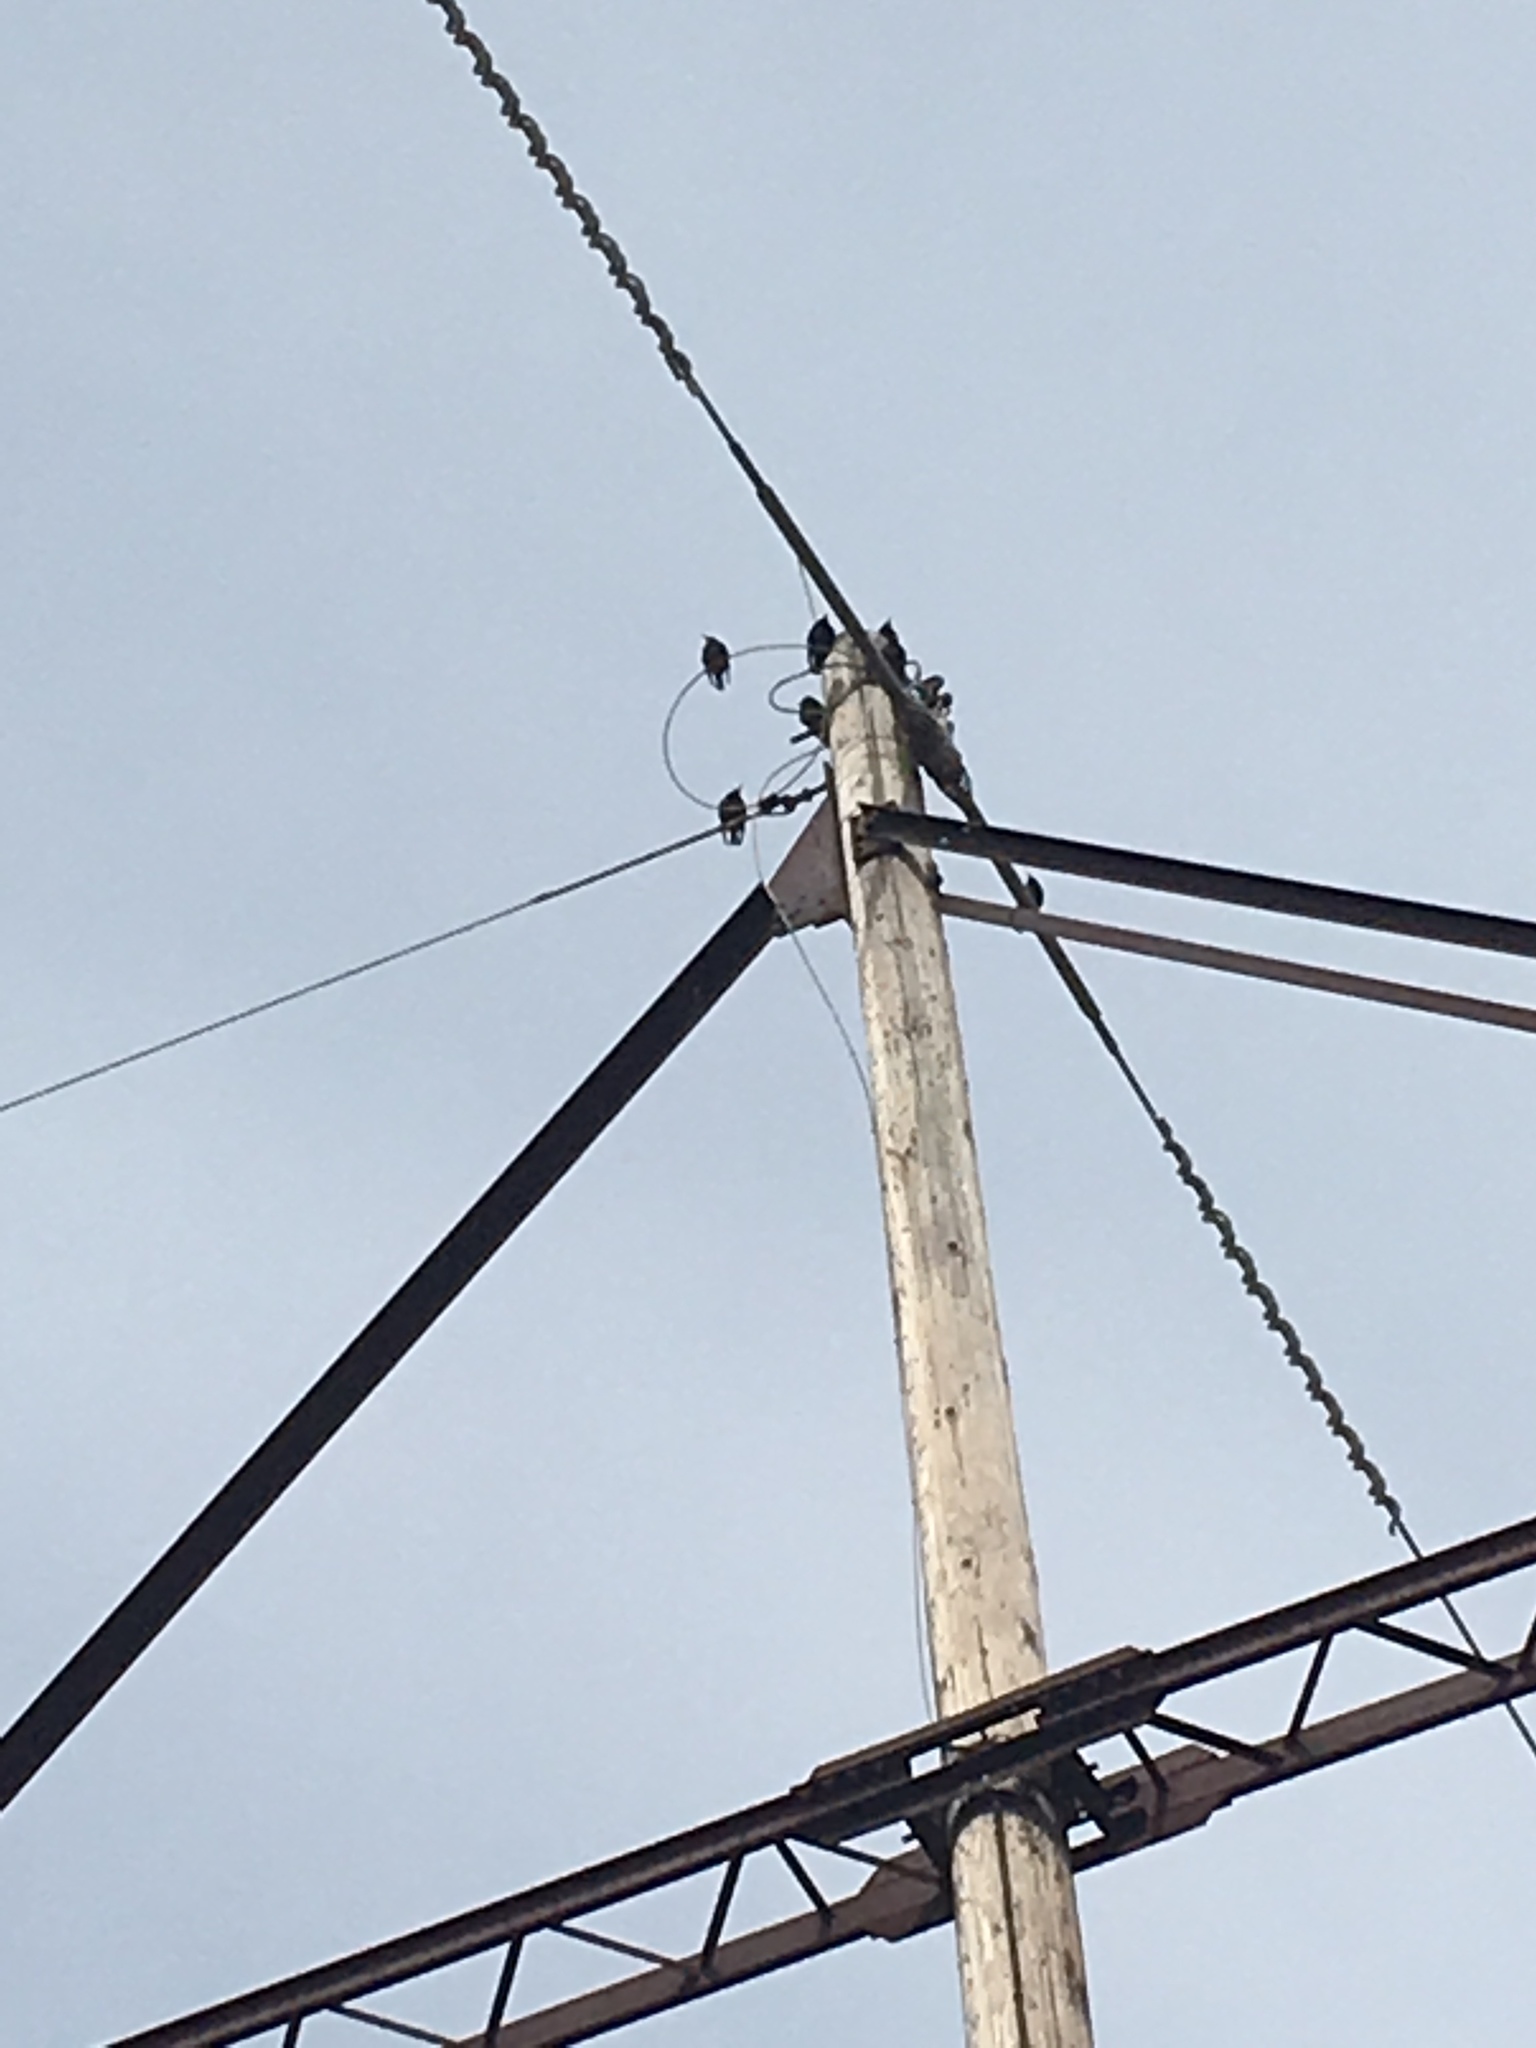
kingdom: Animalia
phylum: Chordata
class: Aves
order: Passeriformes
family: Sturnidae
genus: Sturnus
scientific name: Sturnus vulgaris
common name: Common starling
